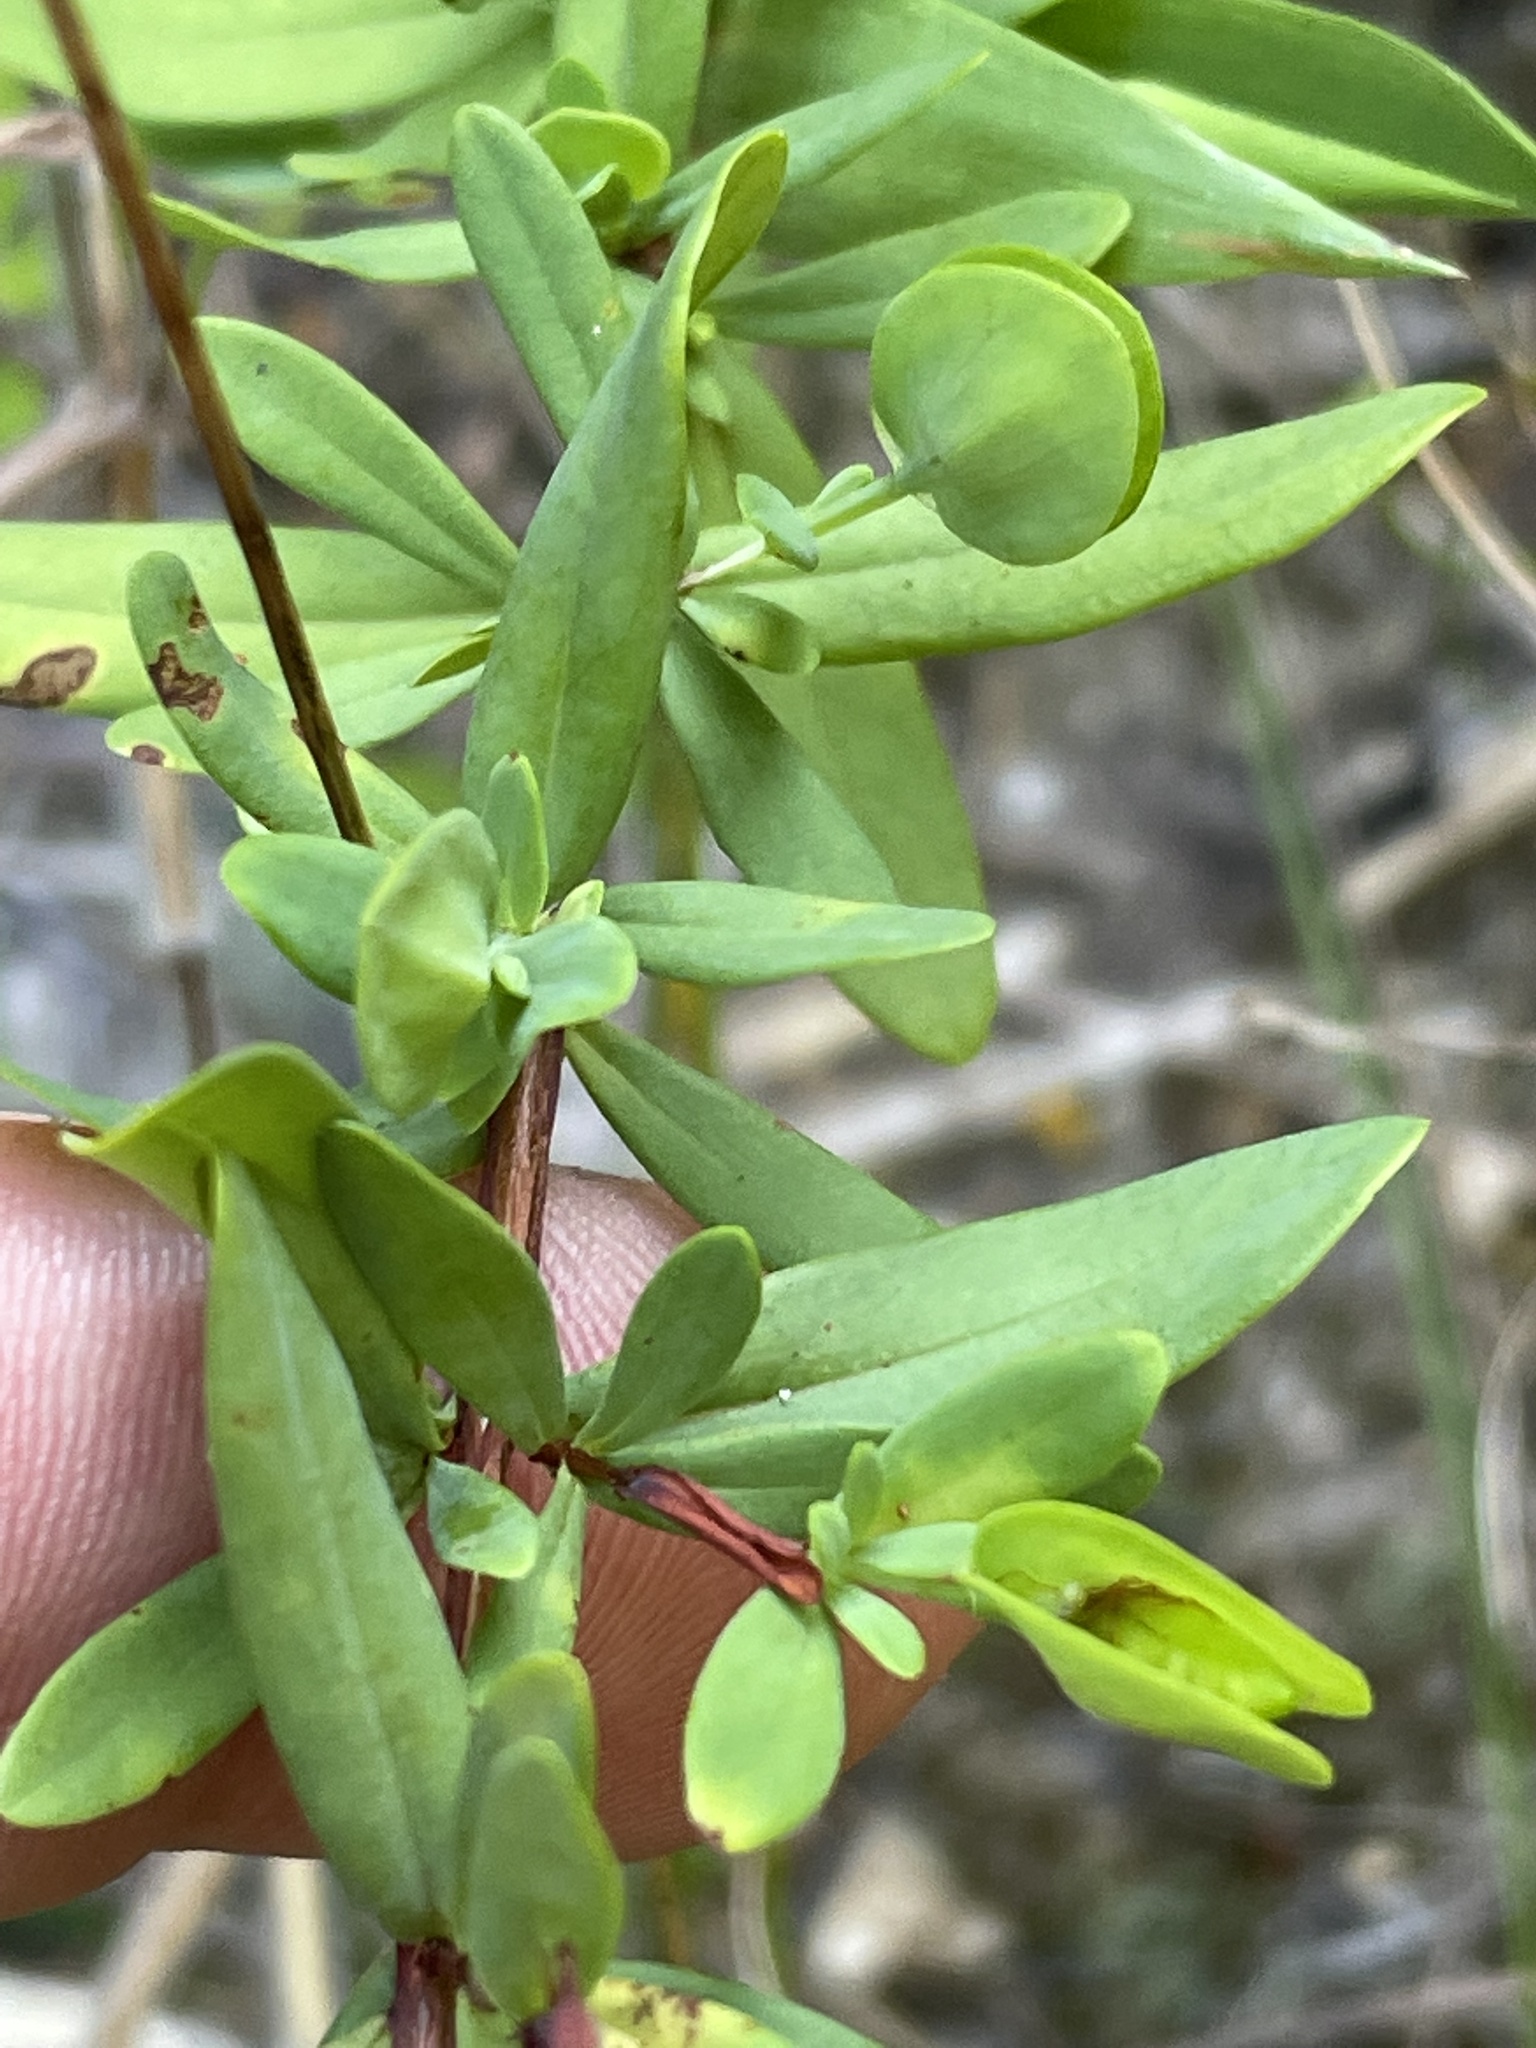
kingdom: Plantae
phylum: Tracheophyta
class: Magnoliopsida
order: Malpighiales
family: Hypericaceae
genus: Hypericum
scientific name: Hypericum hypericoides
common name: St. andrew's cross
